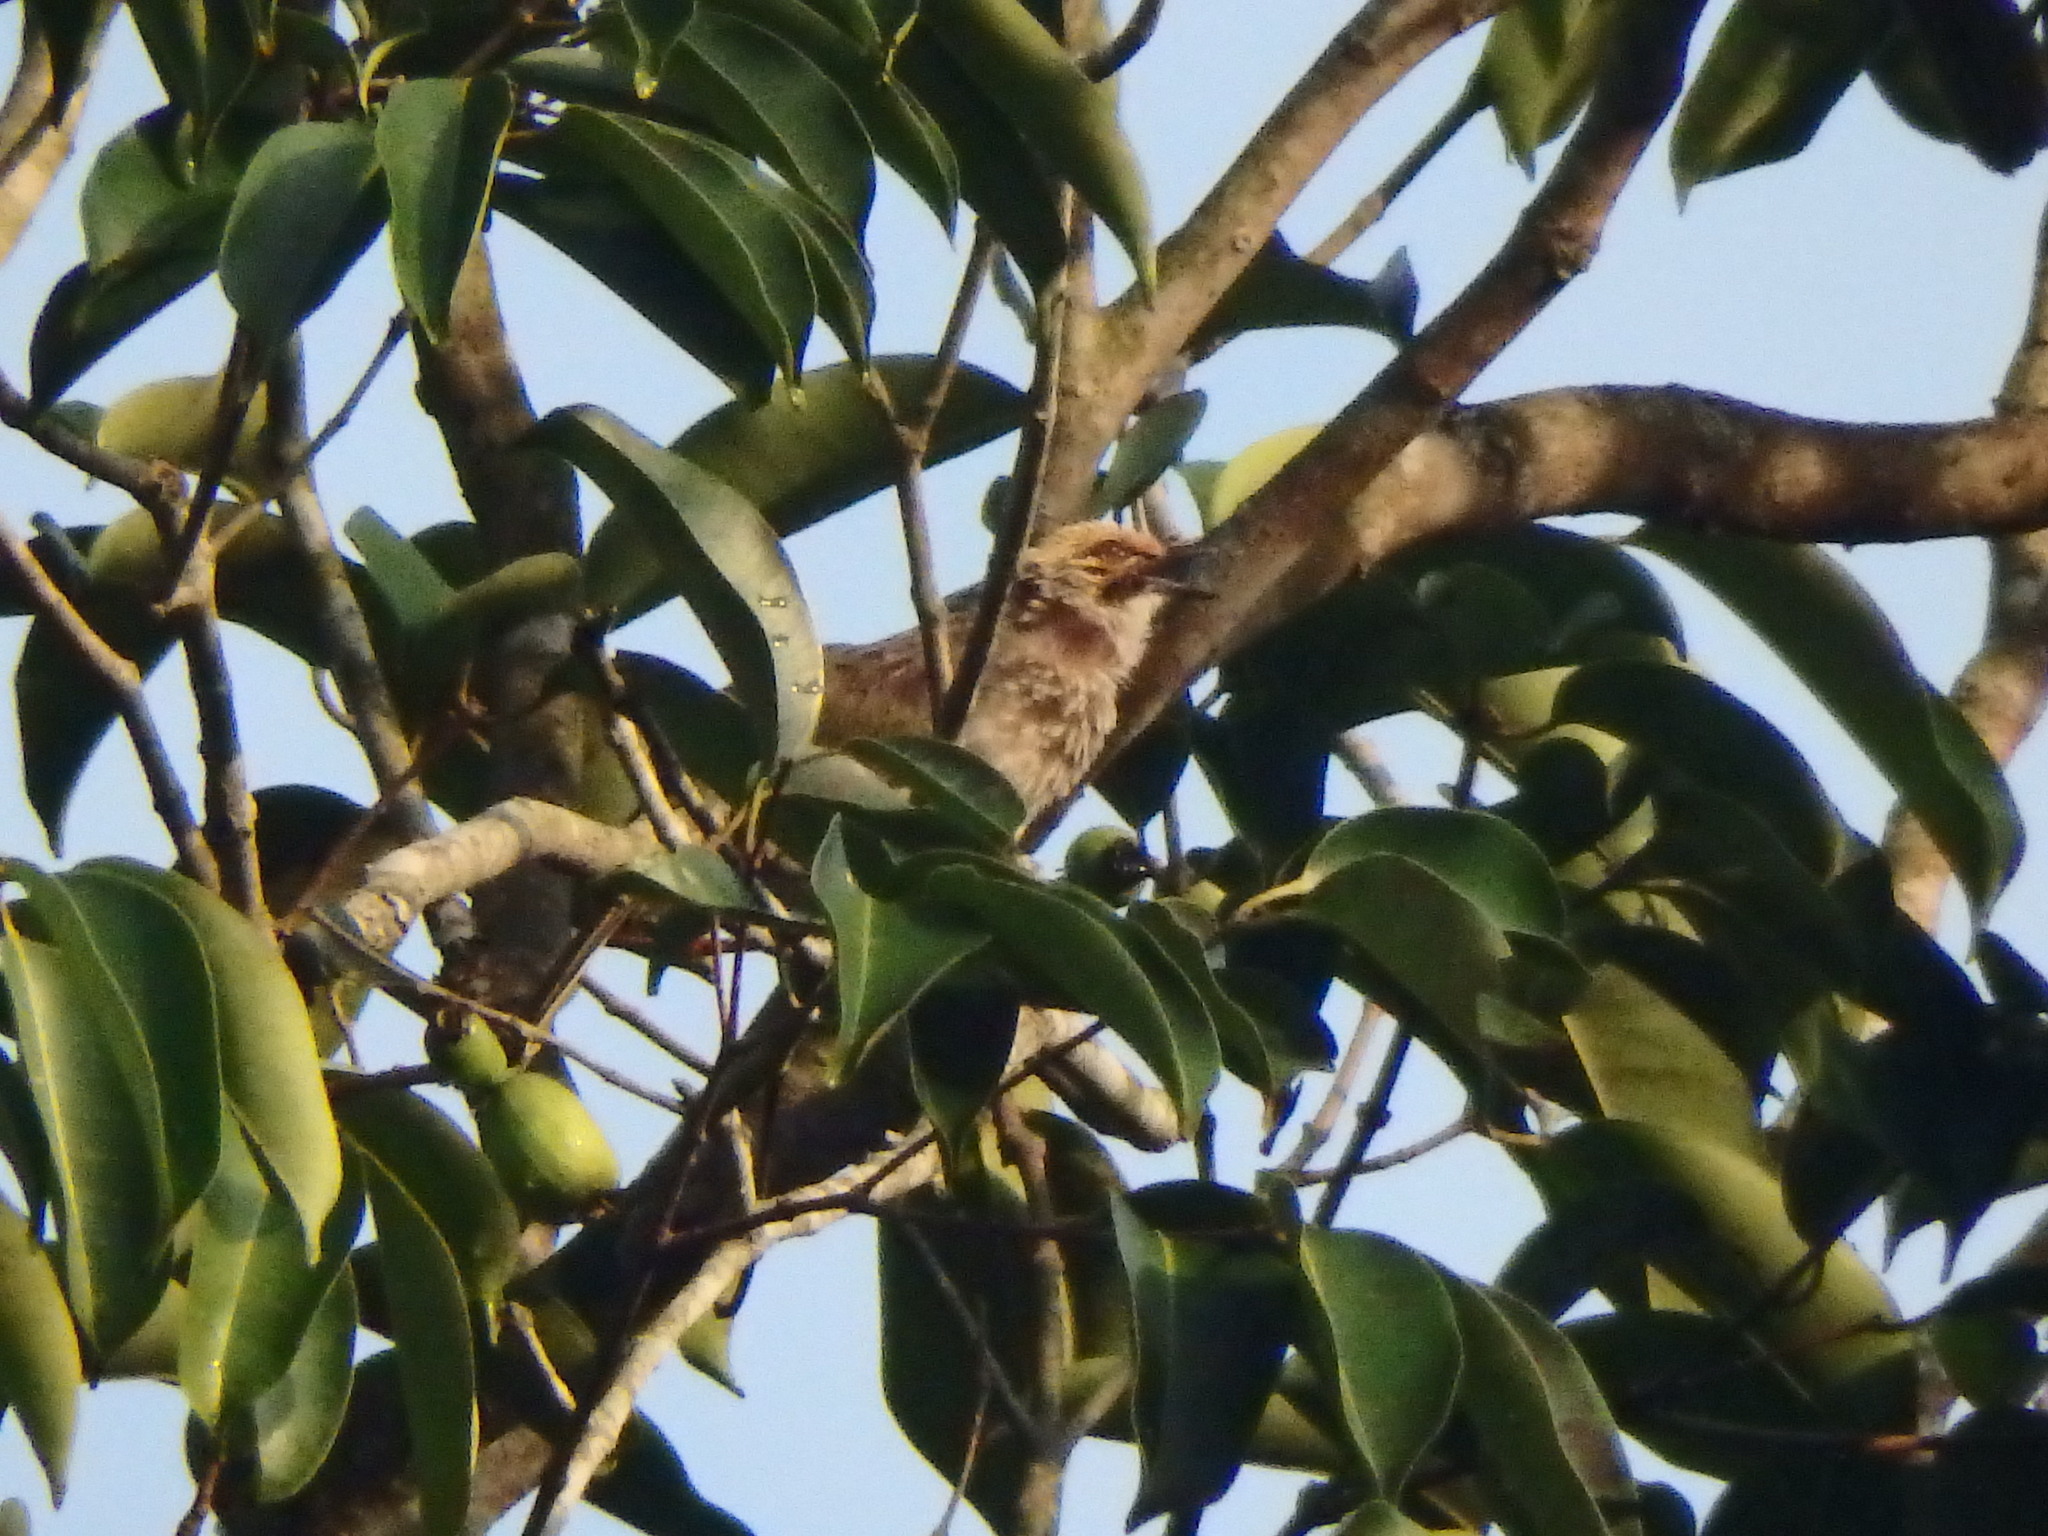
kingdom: Animalia
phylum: Chordata
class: Aves
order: Passeriformes
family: Pycnonotidae
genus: Pycnonotus
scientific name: Pycnonotus zeylanicus
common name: Straw-headed bulbul
